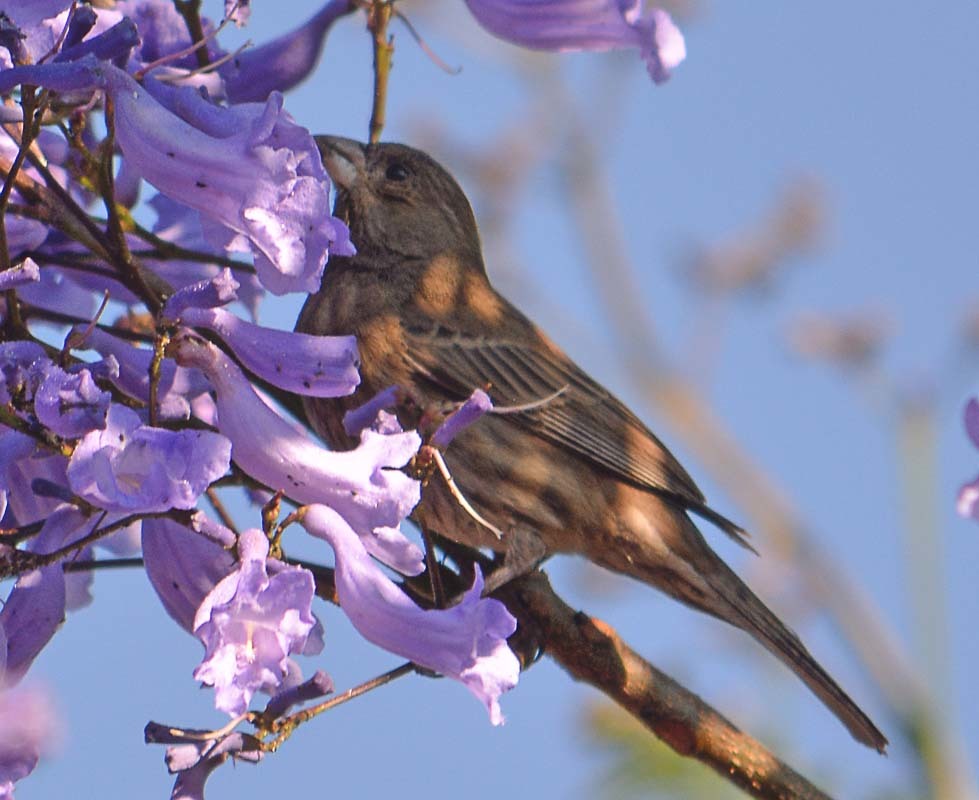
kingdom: Animalia
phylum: Chordata
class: Aves
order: Passeriformes
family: Fringillidae
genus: Haemorhous
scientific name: Haemorhous mexicanus
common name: House finch
